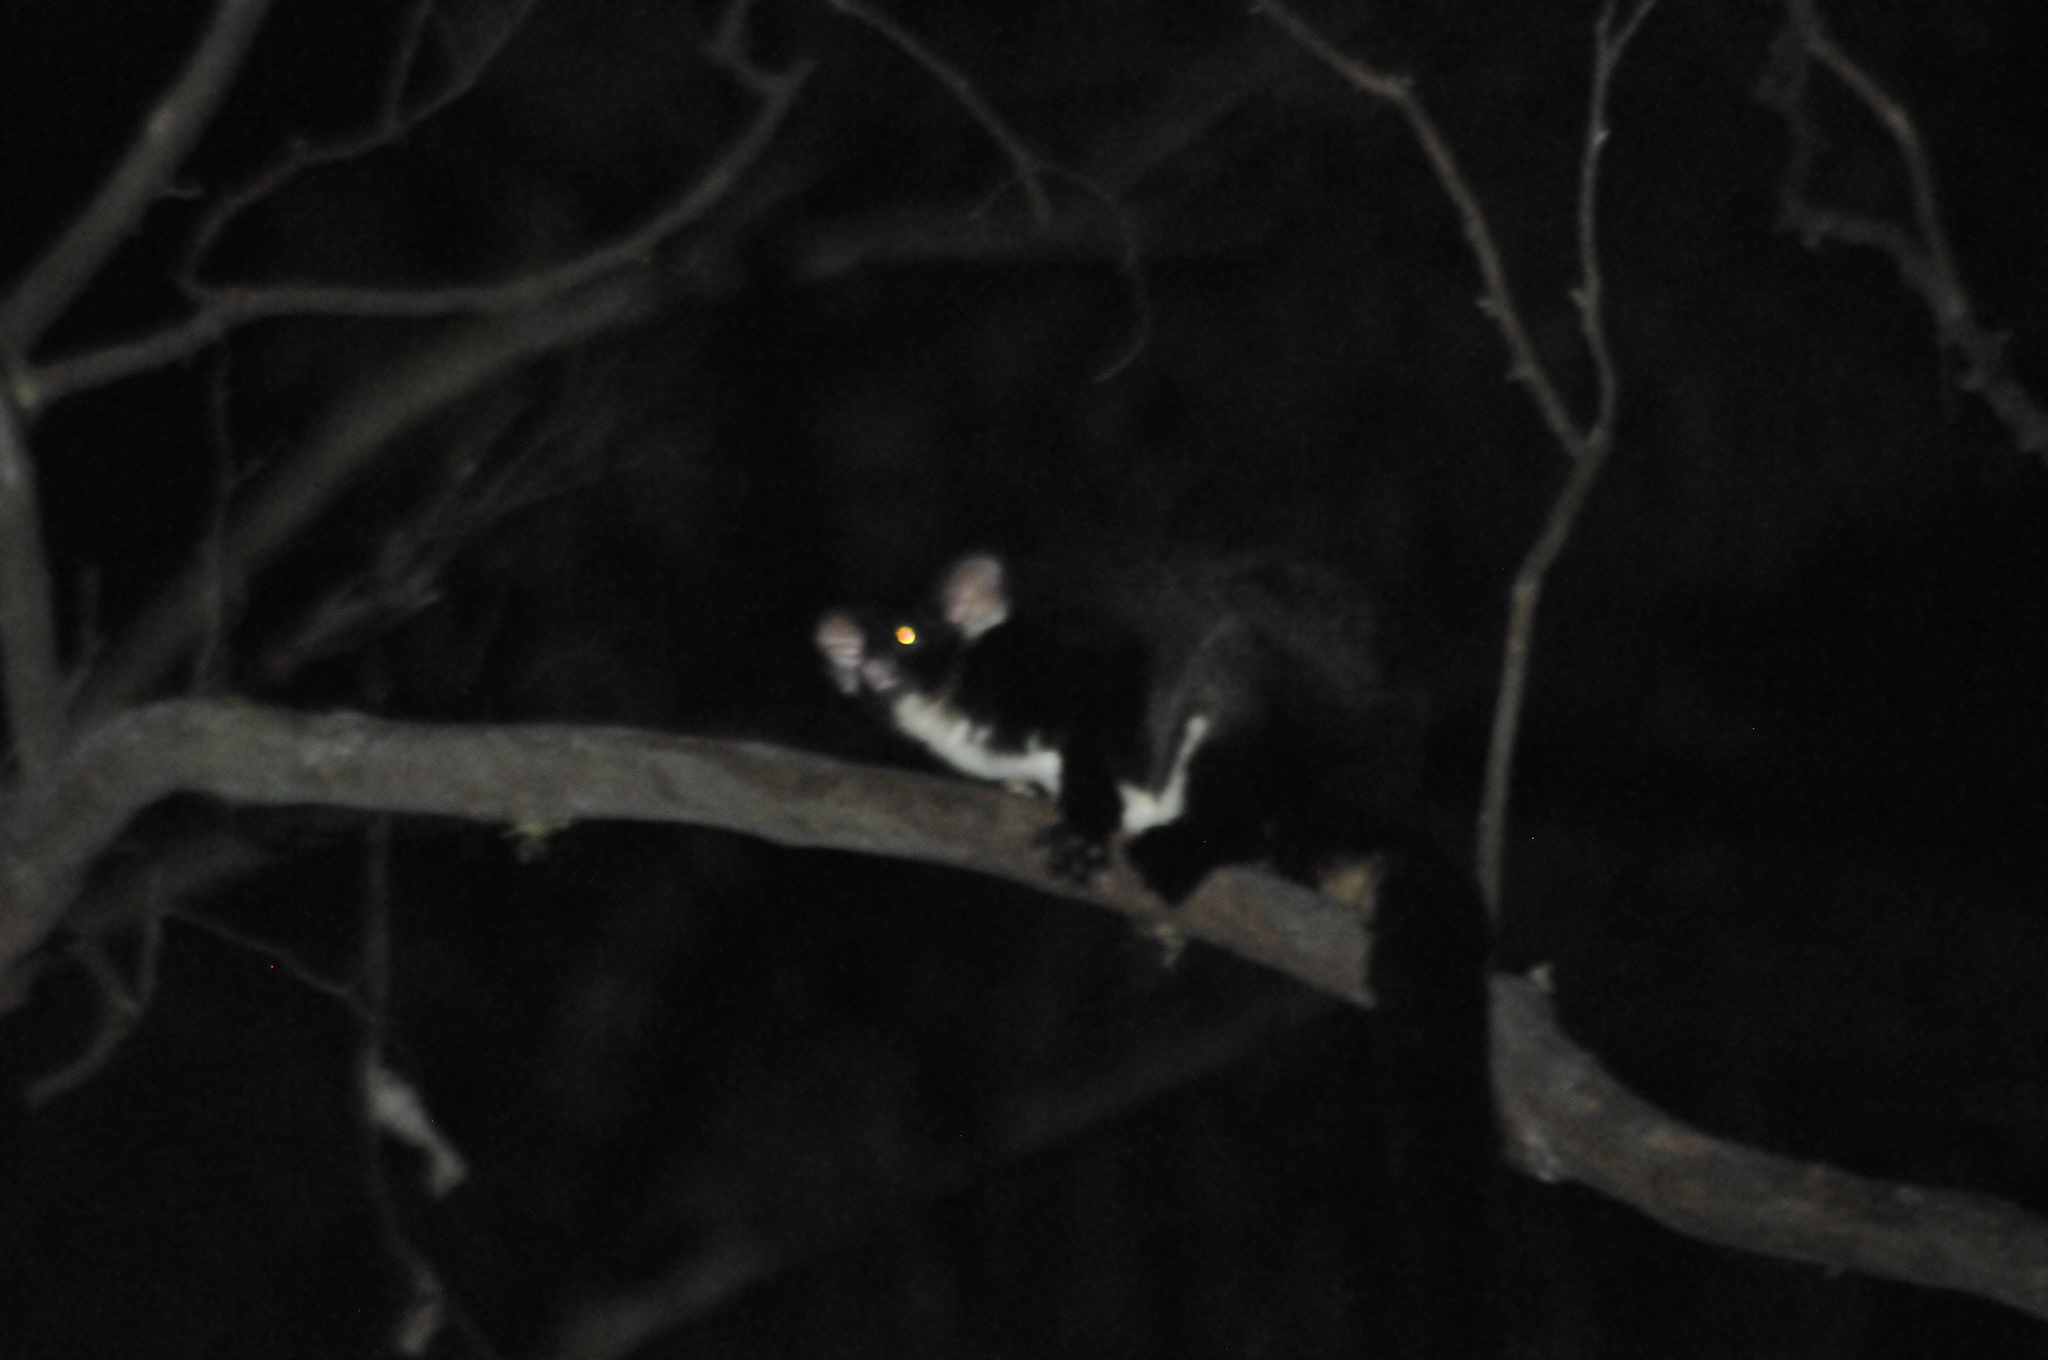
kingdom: Animalia
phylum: Chordata
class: Mammalia
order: Diprotodontia
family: Pseudocheiridae
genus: Petauroides
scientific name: Petauroides volans
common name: Greater glider
